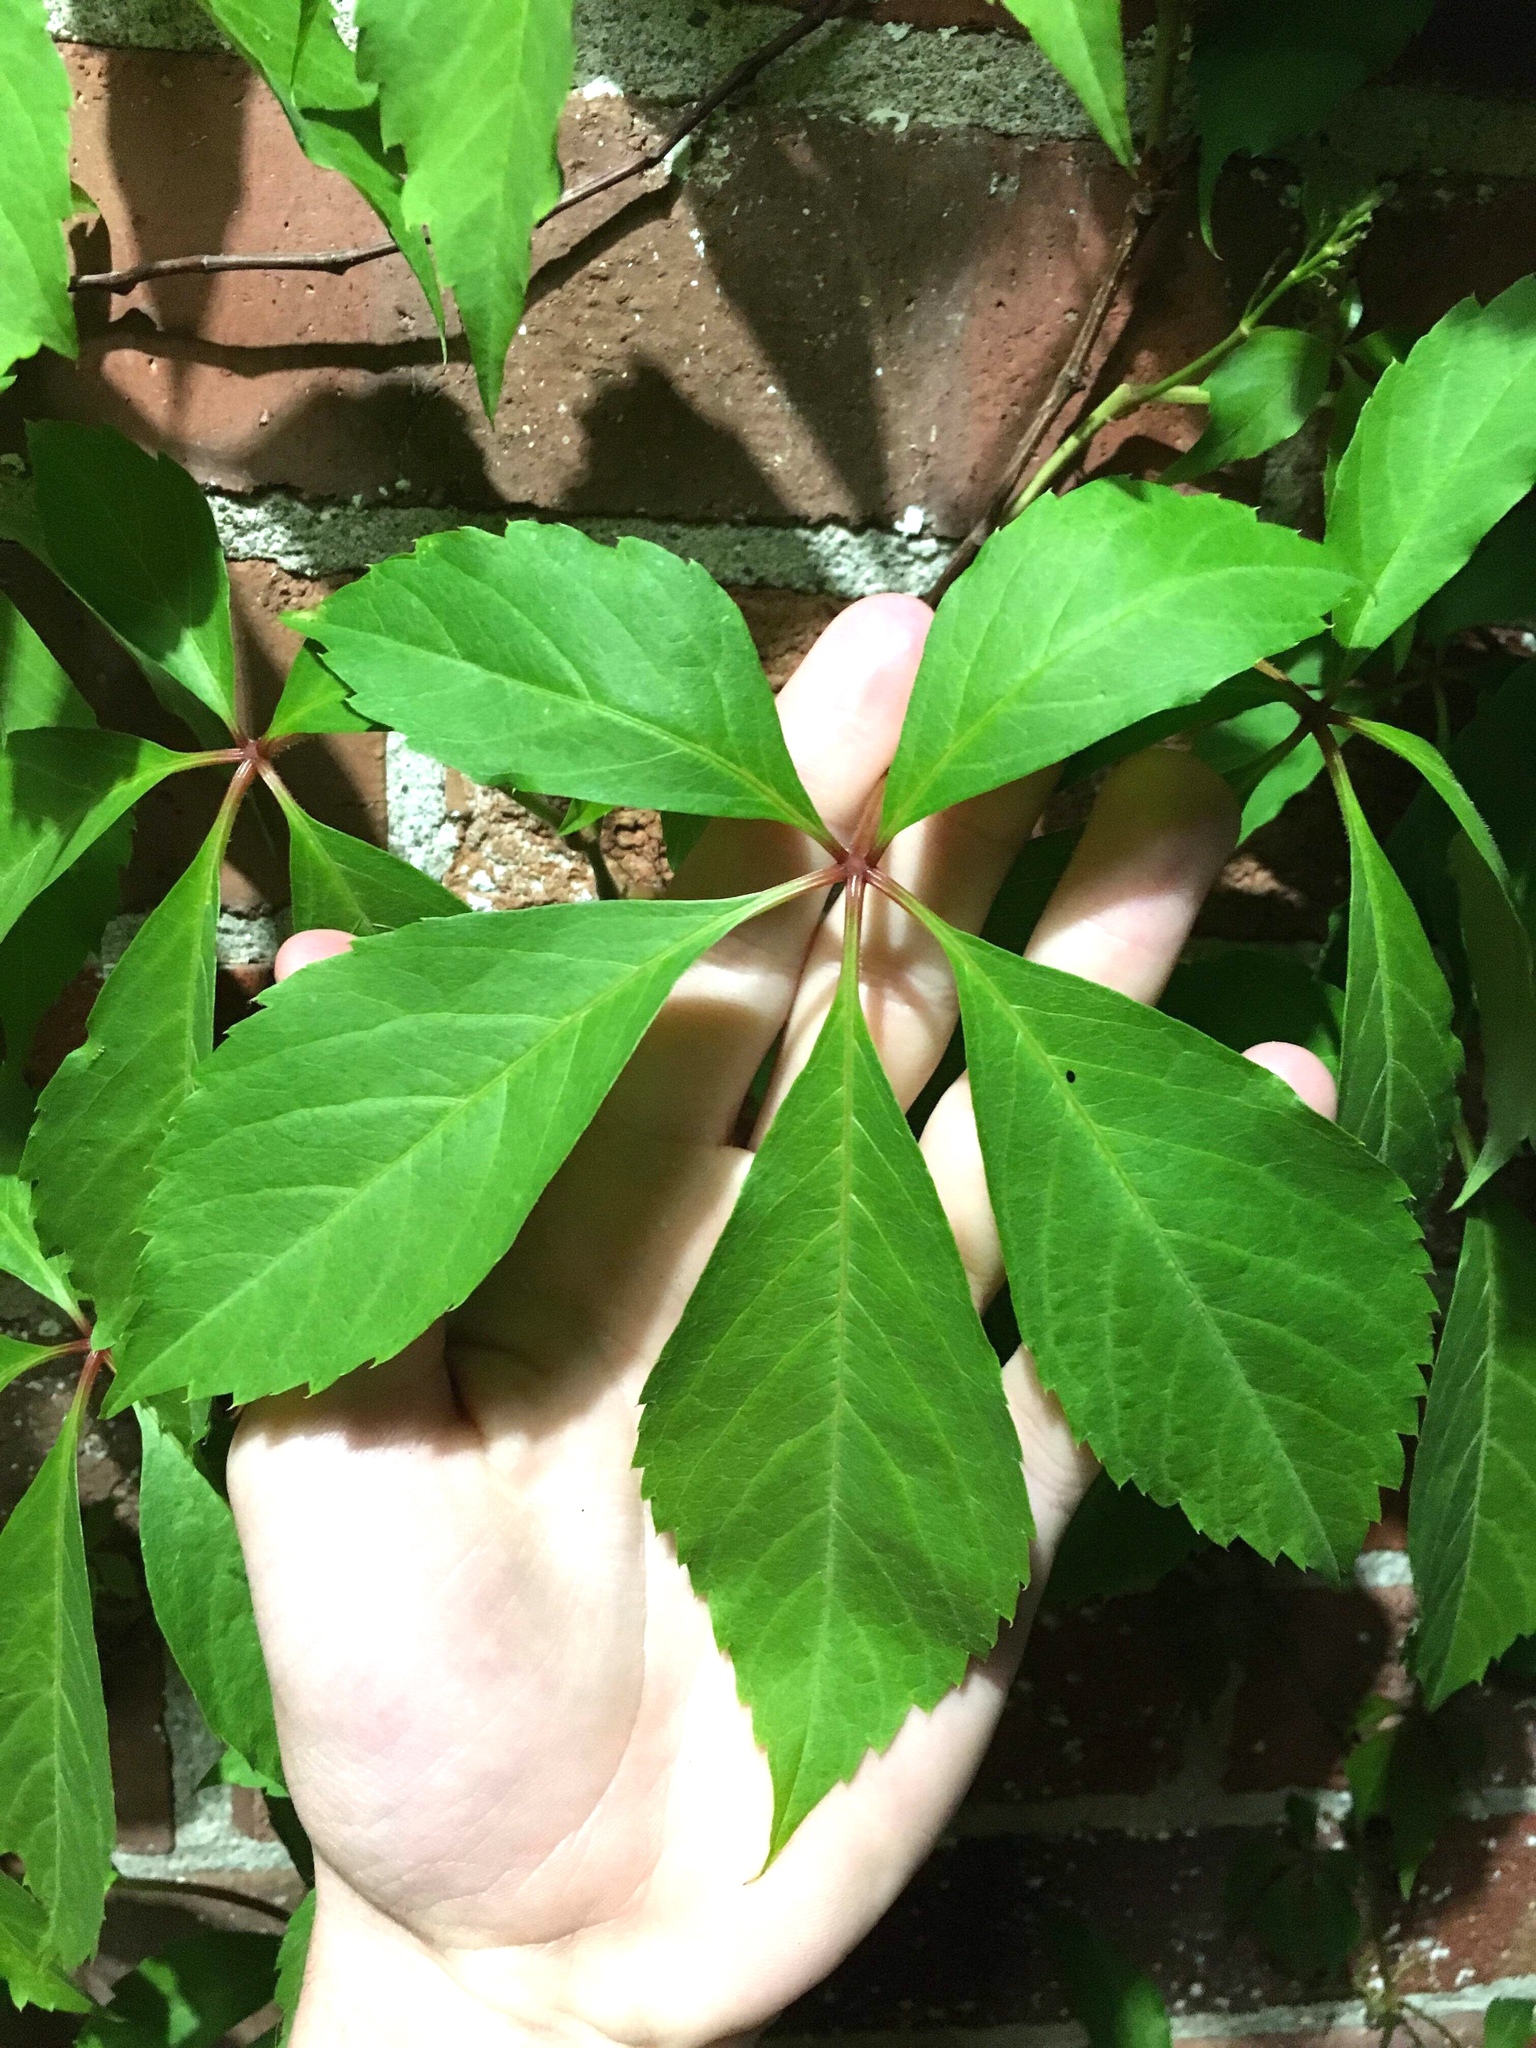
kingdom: Plantae
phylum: Tracheophyta
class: Magnoliopsida
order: Vitales
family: Vitaceae
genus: Parthenocissus
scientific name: Parthenocissus quinquefolia
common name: Virginia-creeper
